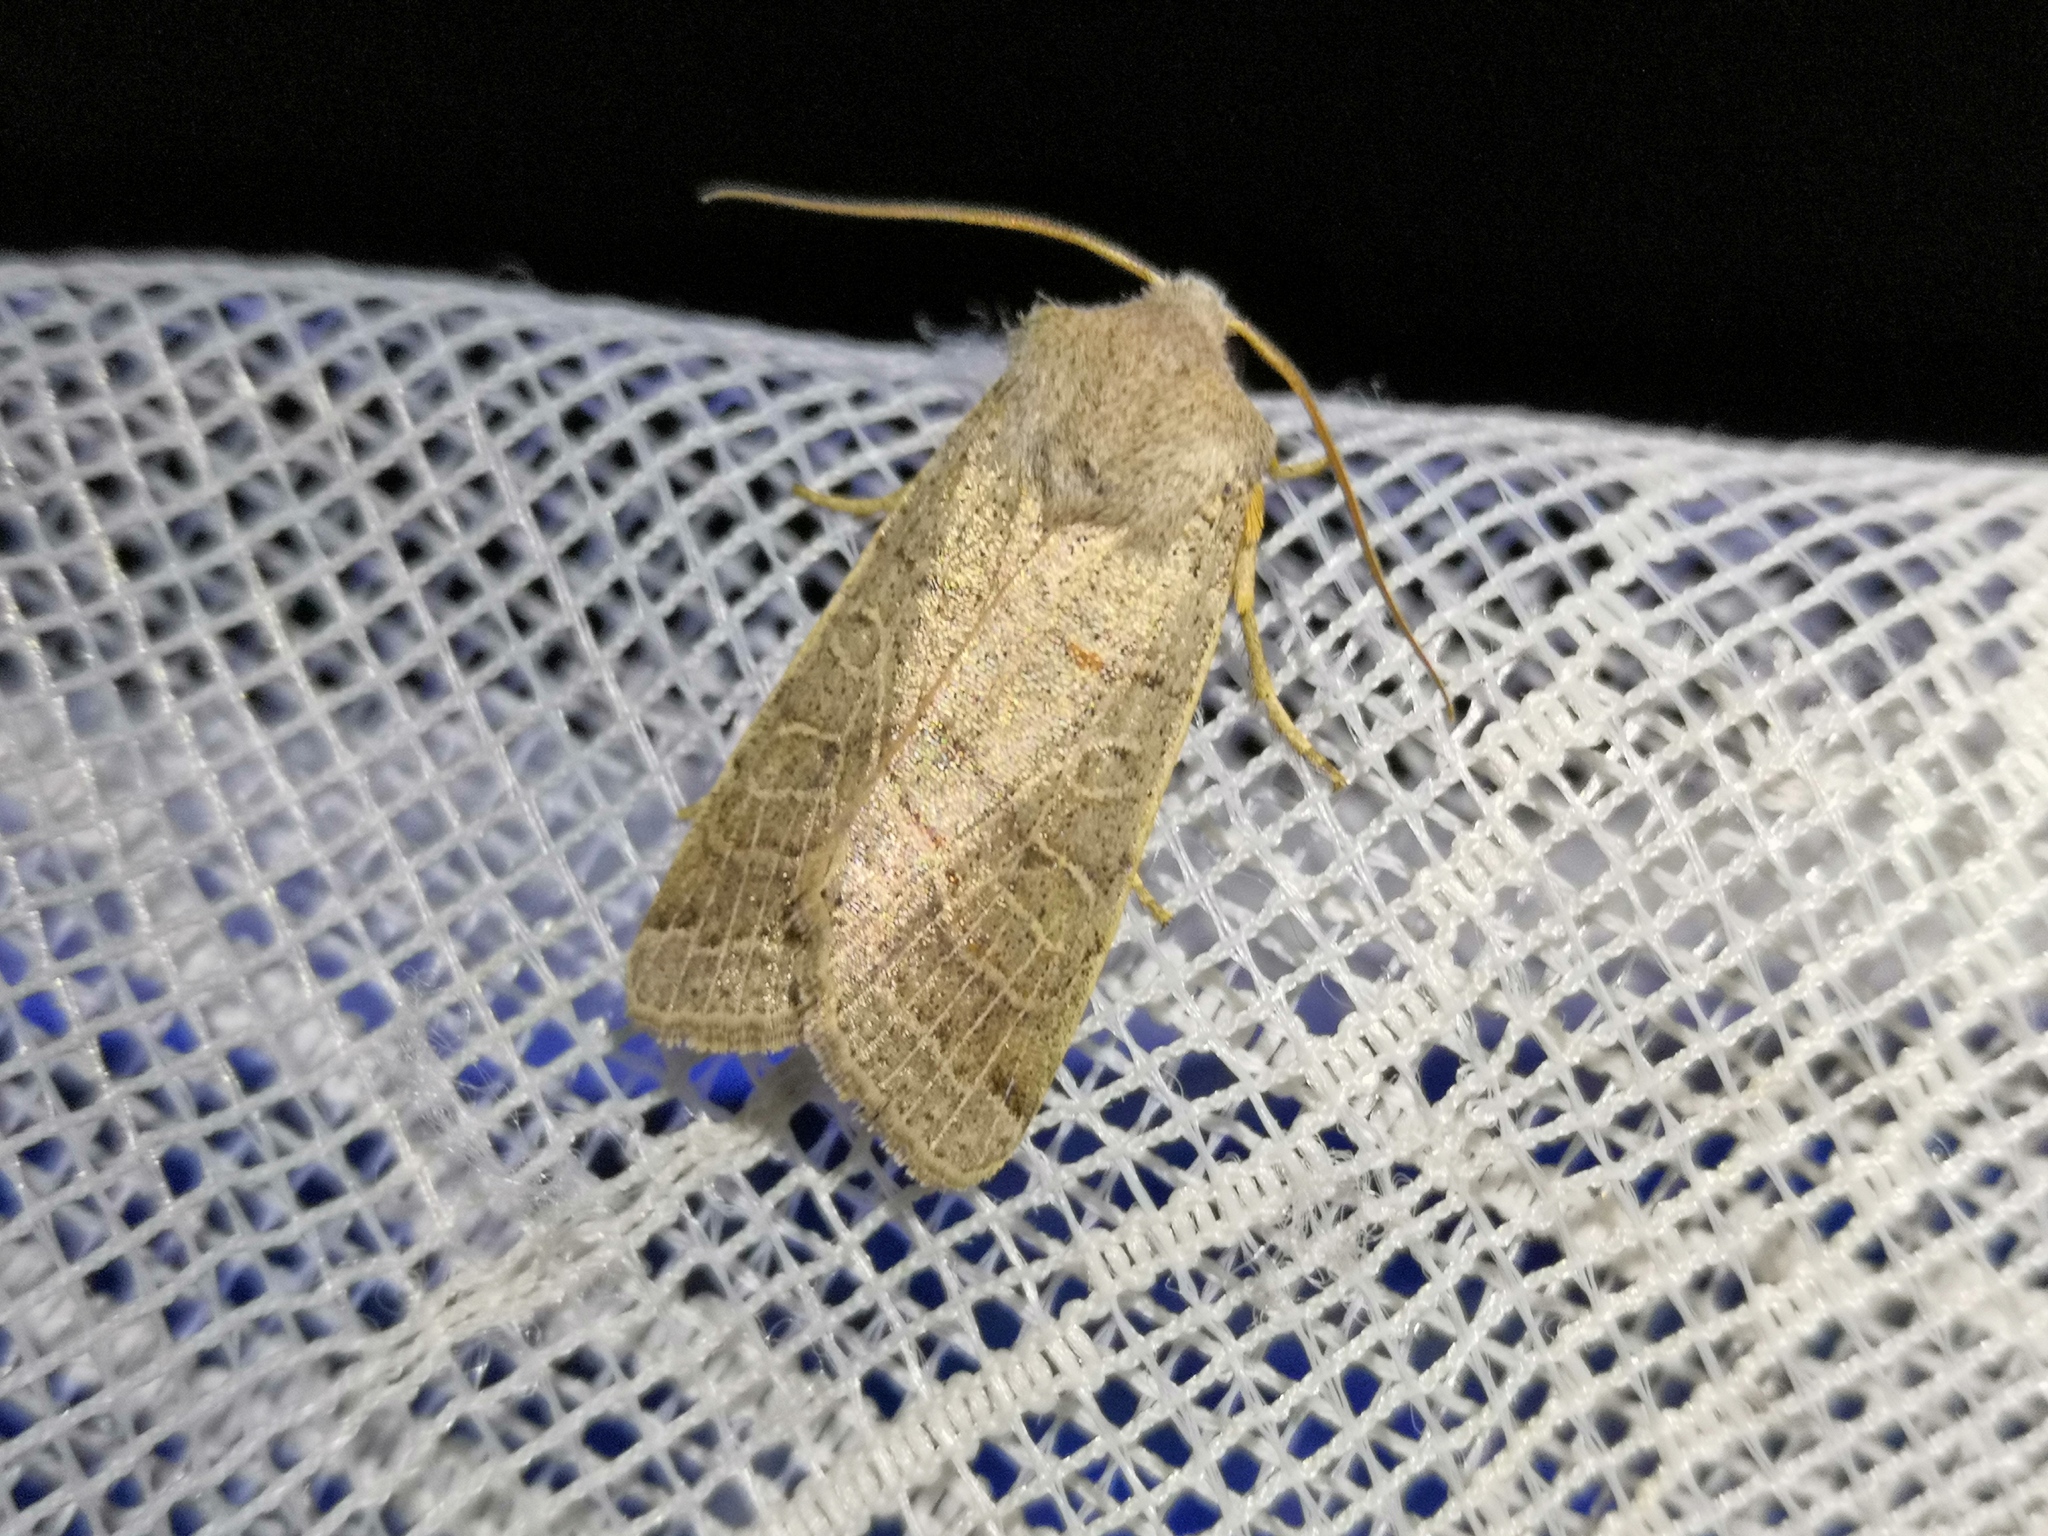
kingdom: Animalia
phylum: Arthropoda
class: Insecta
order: Lepidoptera
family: Noctuidae
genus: Agrochola
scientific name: Agrochola humilis
